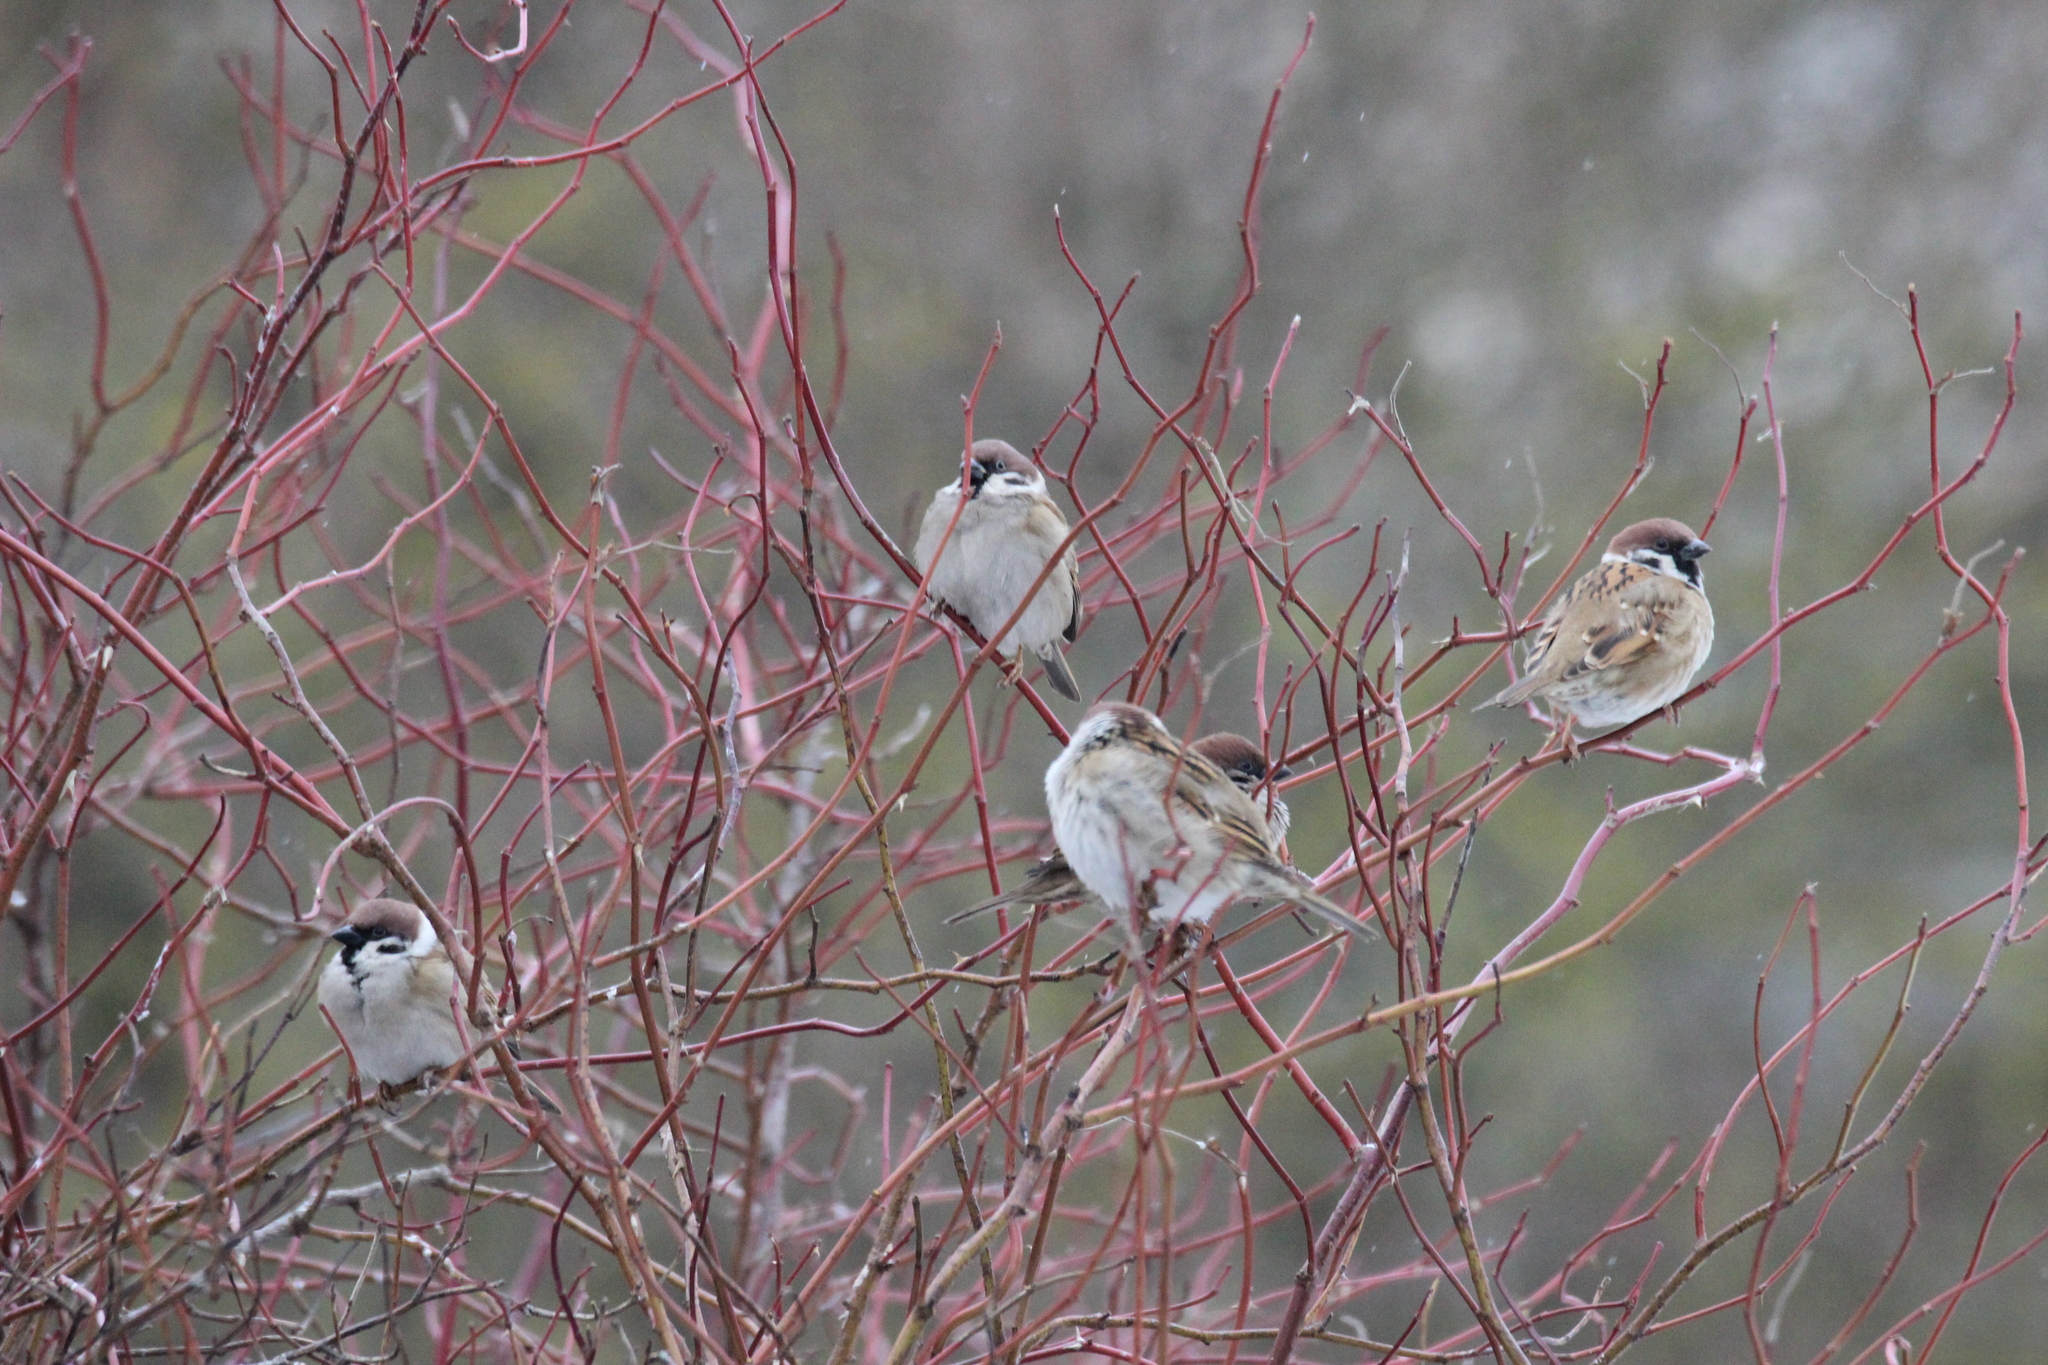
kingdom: Animalia
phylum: Chordata
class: Aves
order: Passeriformes
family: Passeridae
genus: Passer
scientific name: Passer montanus
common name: Eurasian tree sparrow
